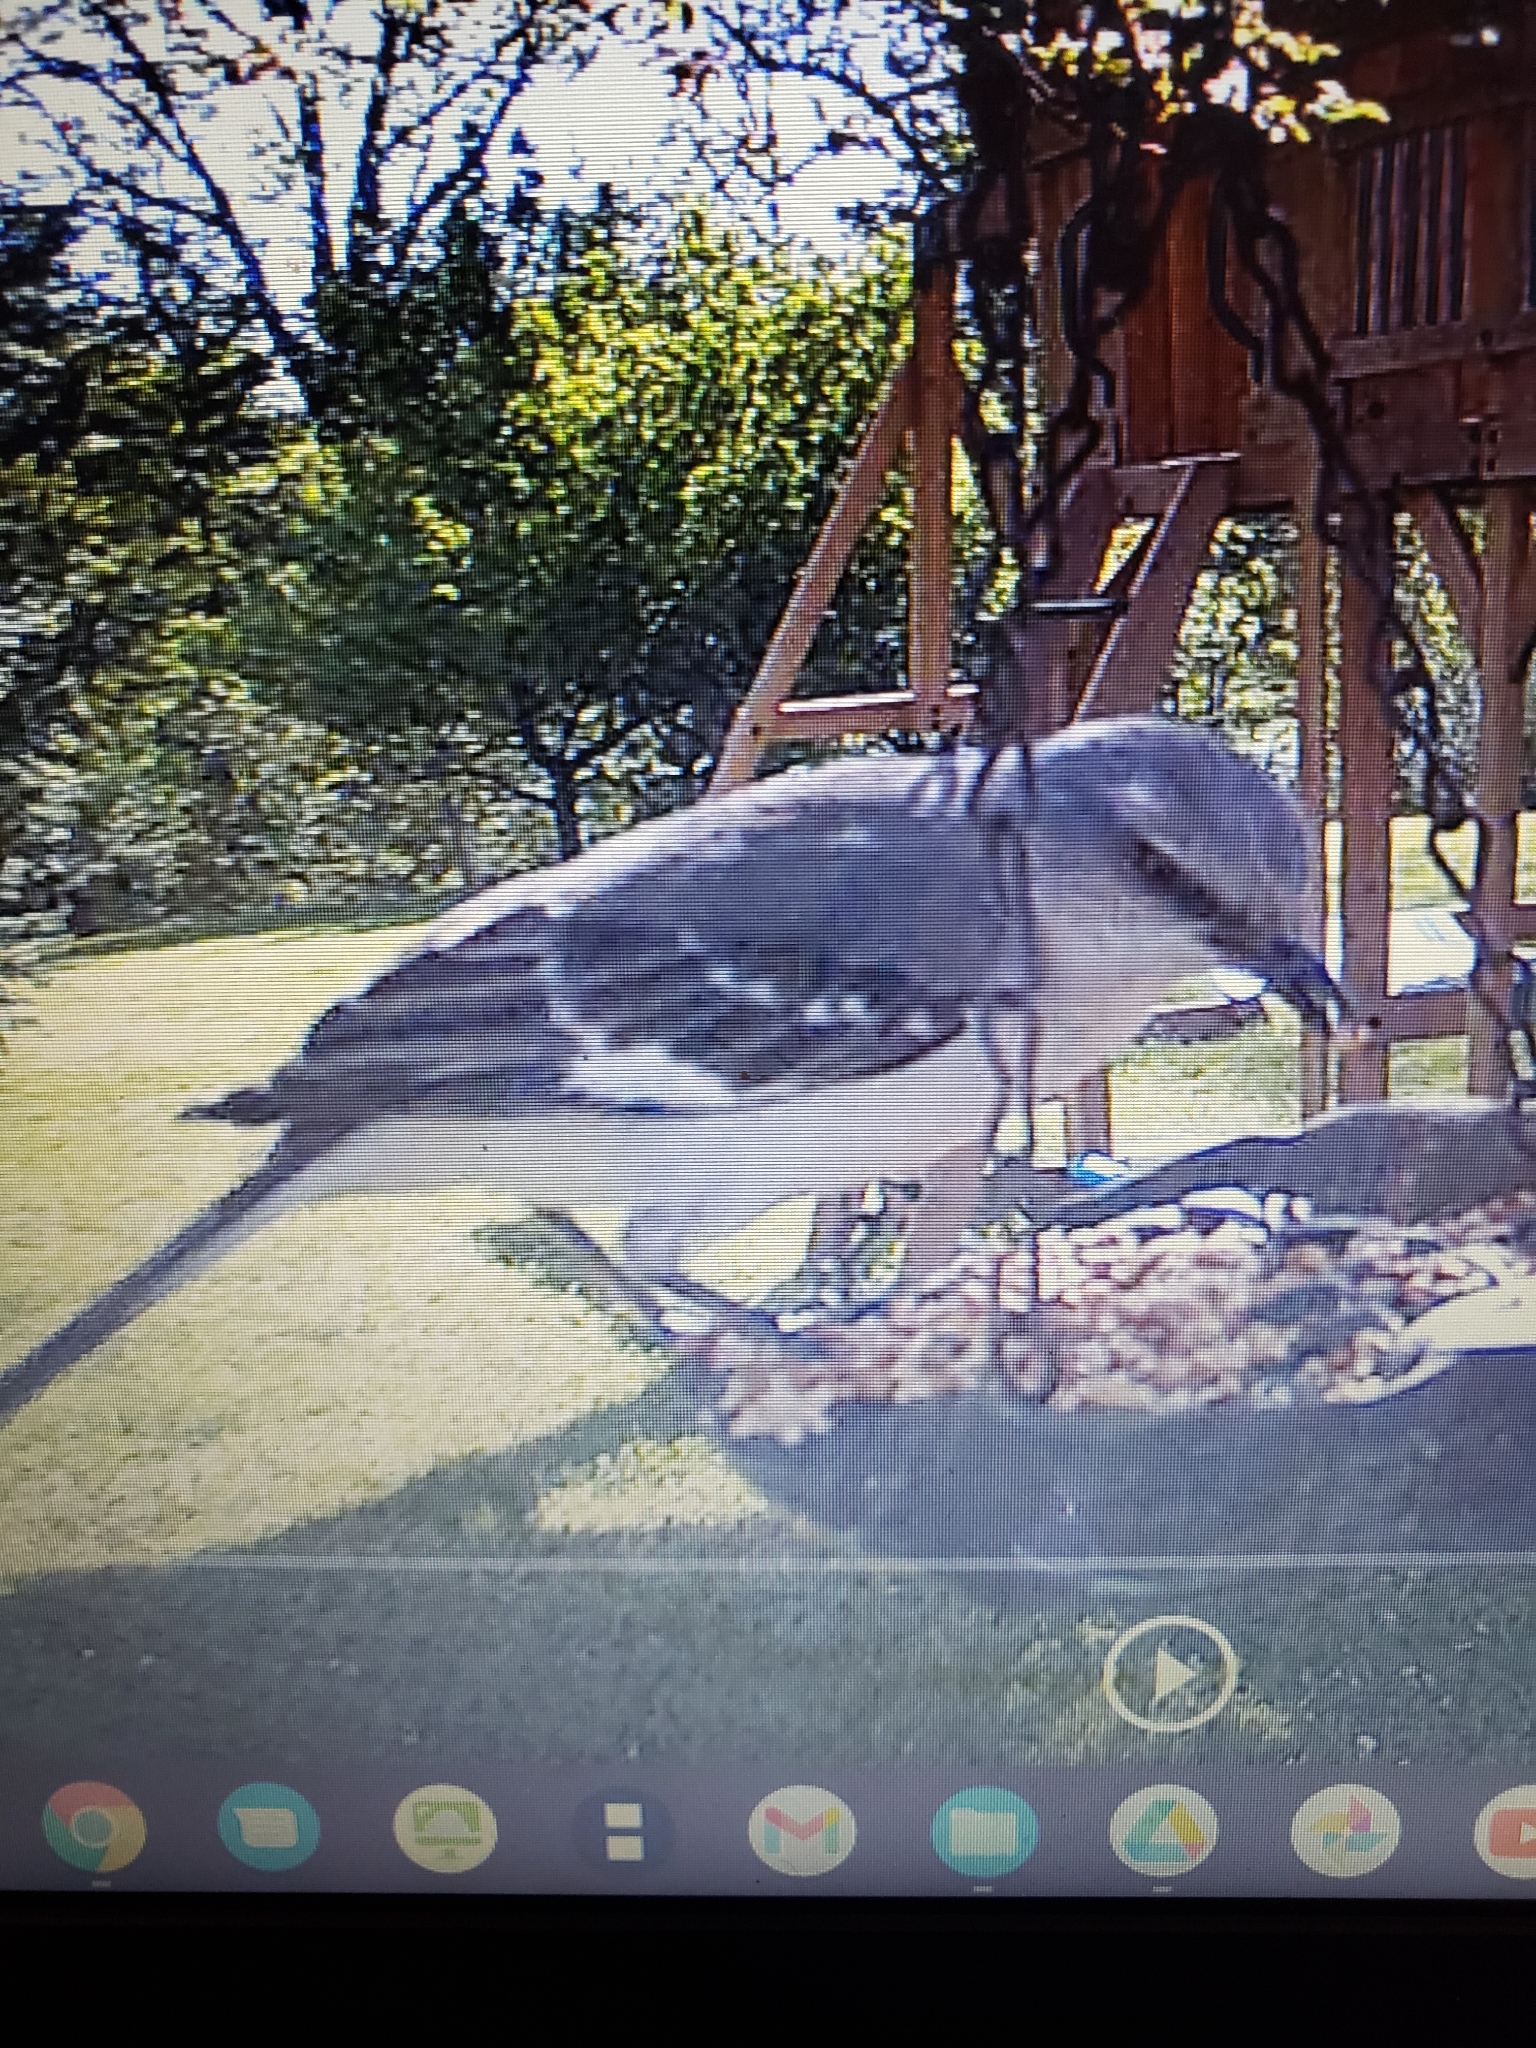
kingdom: Animalia
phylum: Chordata
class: Aves
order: Passeriformes
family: Mimidae
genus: Mimus
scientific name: Mimus polyglottos
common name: Northern mockingbird
